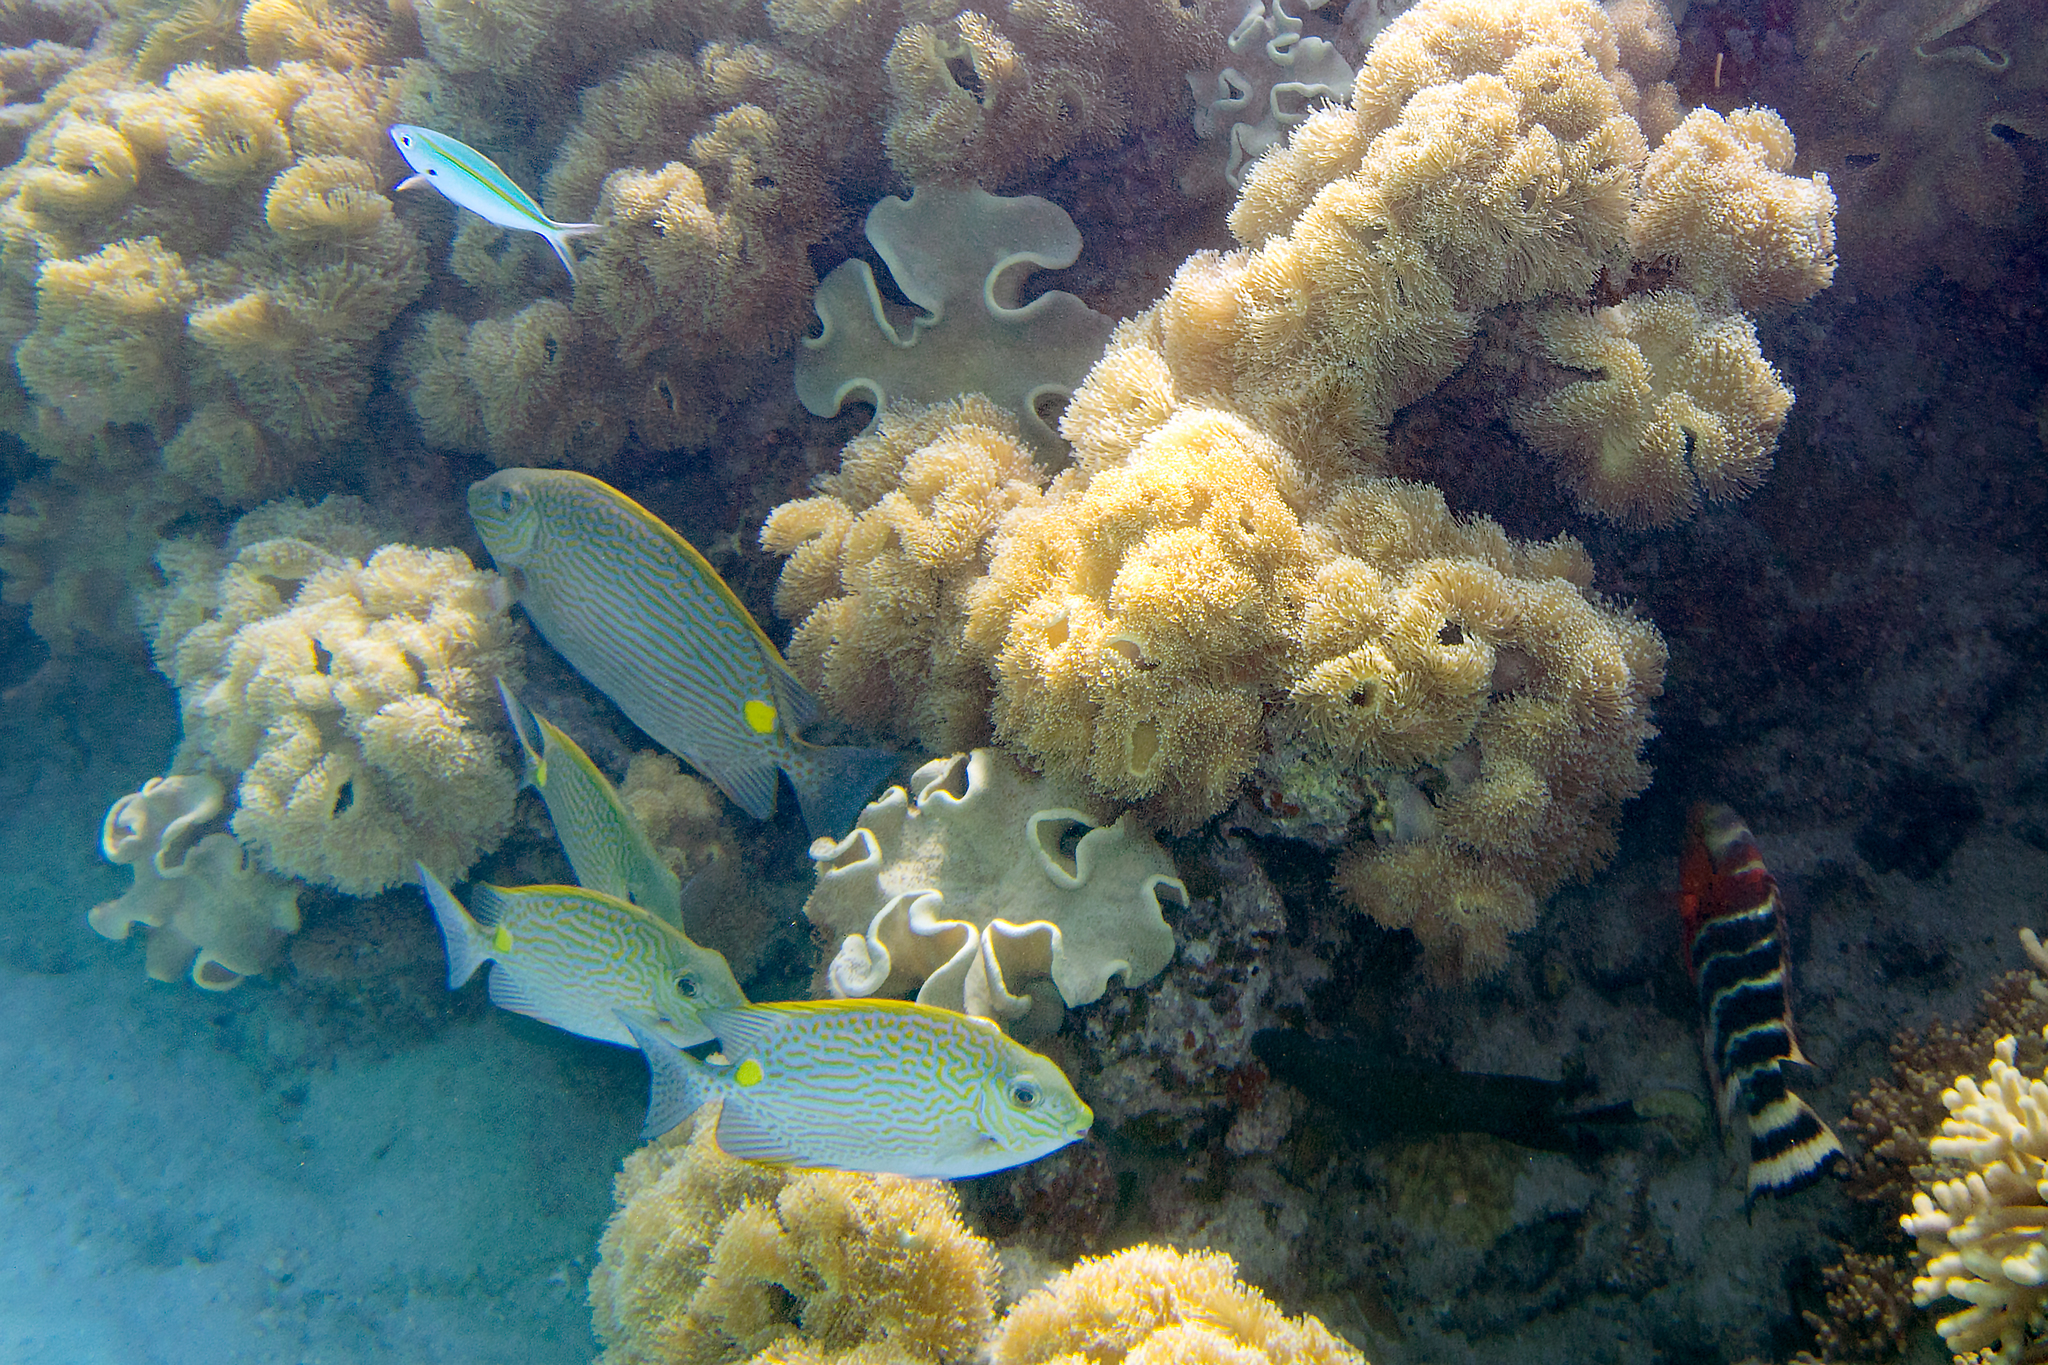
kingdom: Animalia
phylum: Chordata
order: Perciformes
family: Labridae
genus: Cheilinus
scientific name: Cheilinus fasciatus
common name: Red-breasted wrasse
